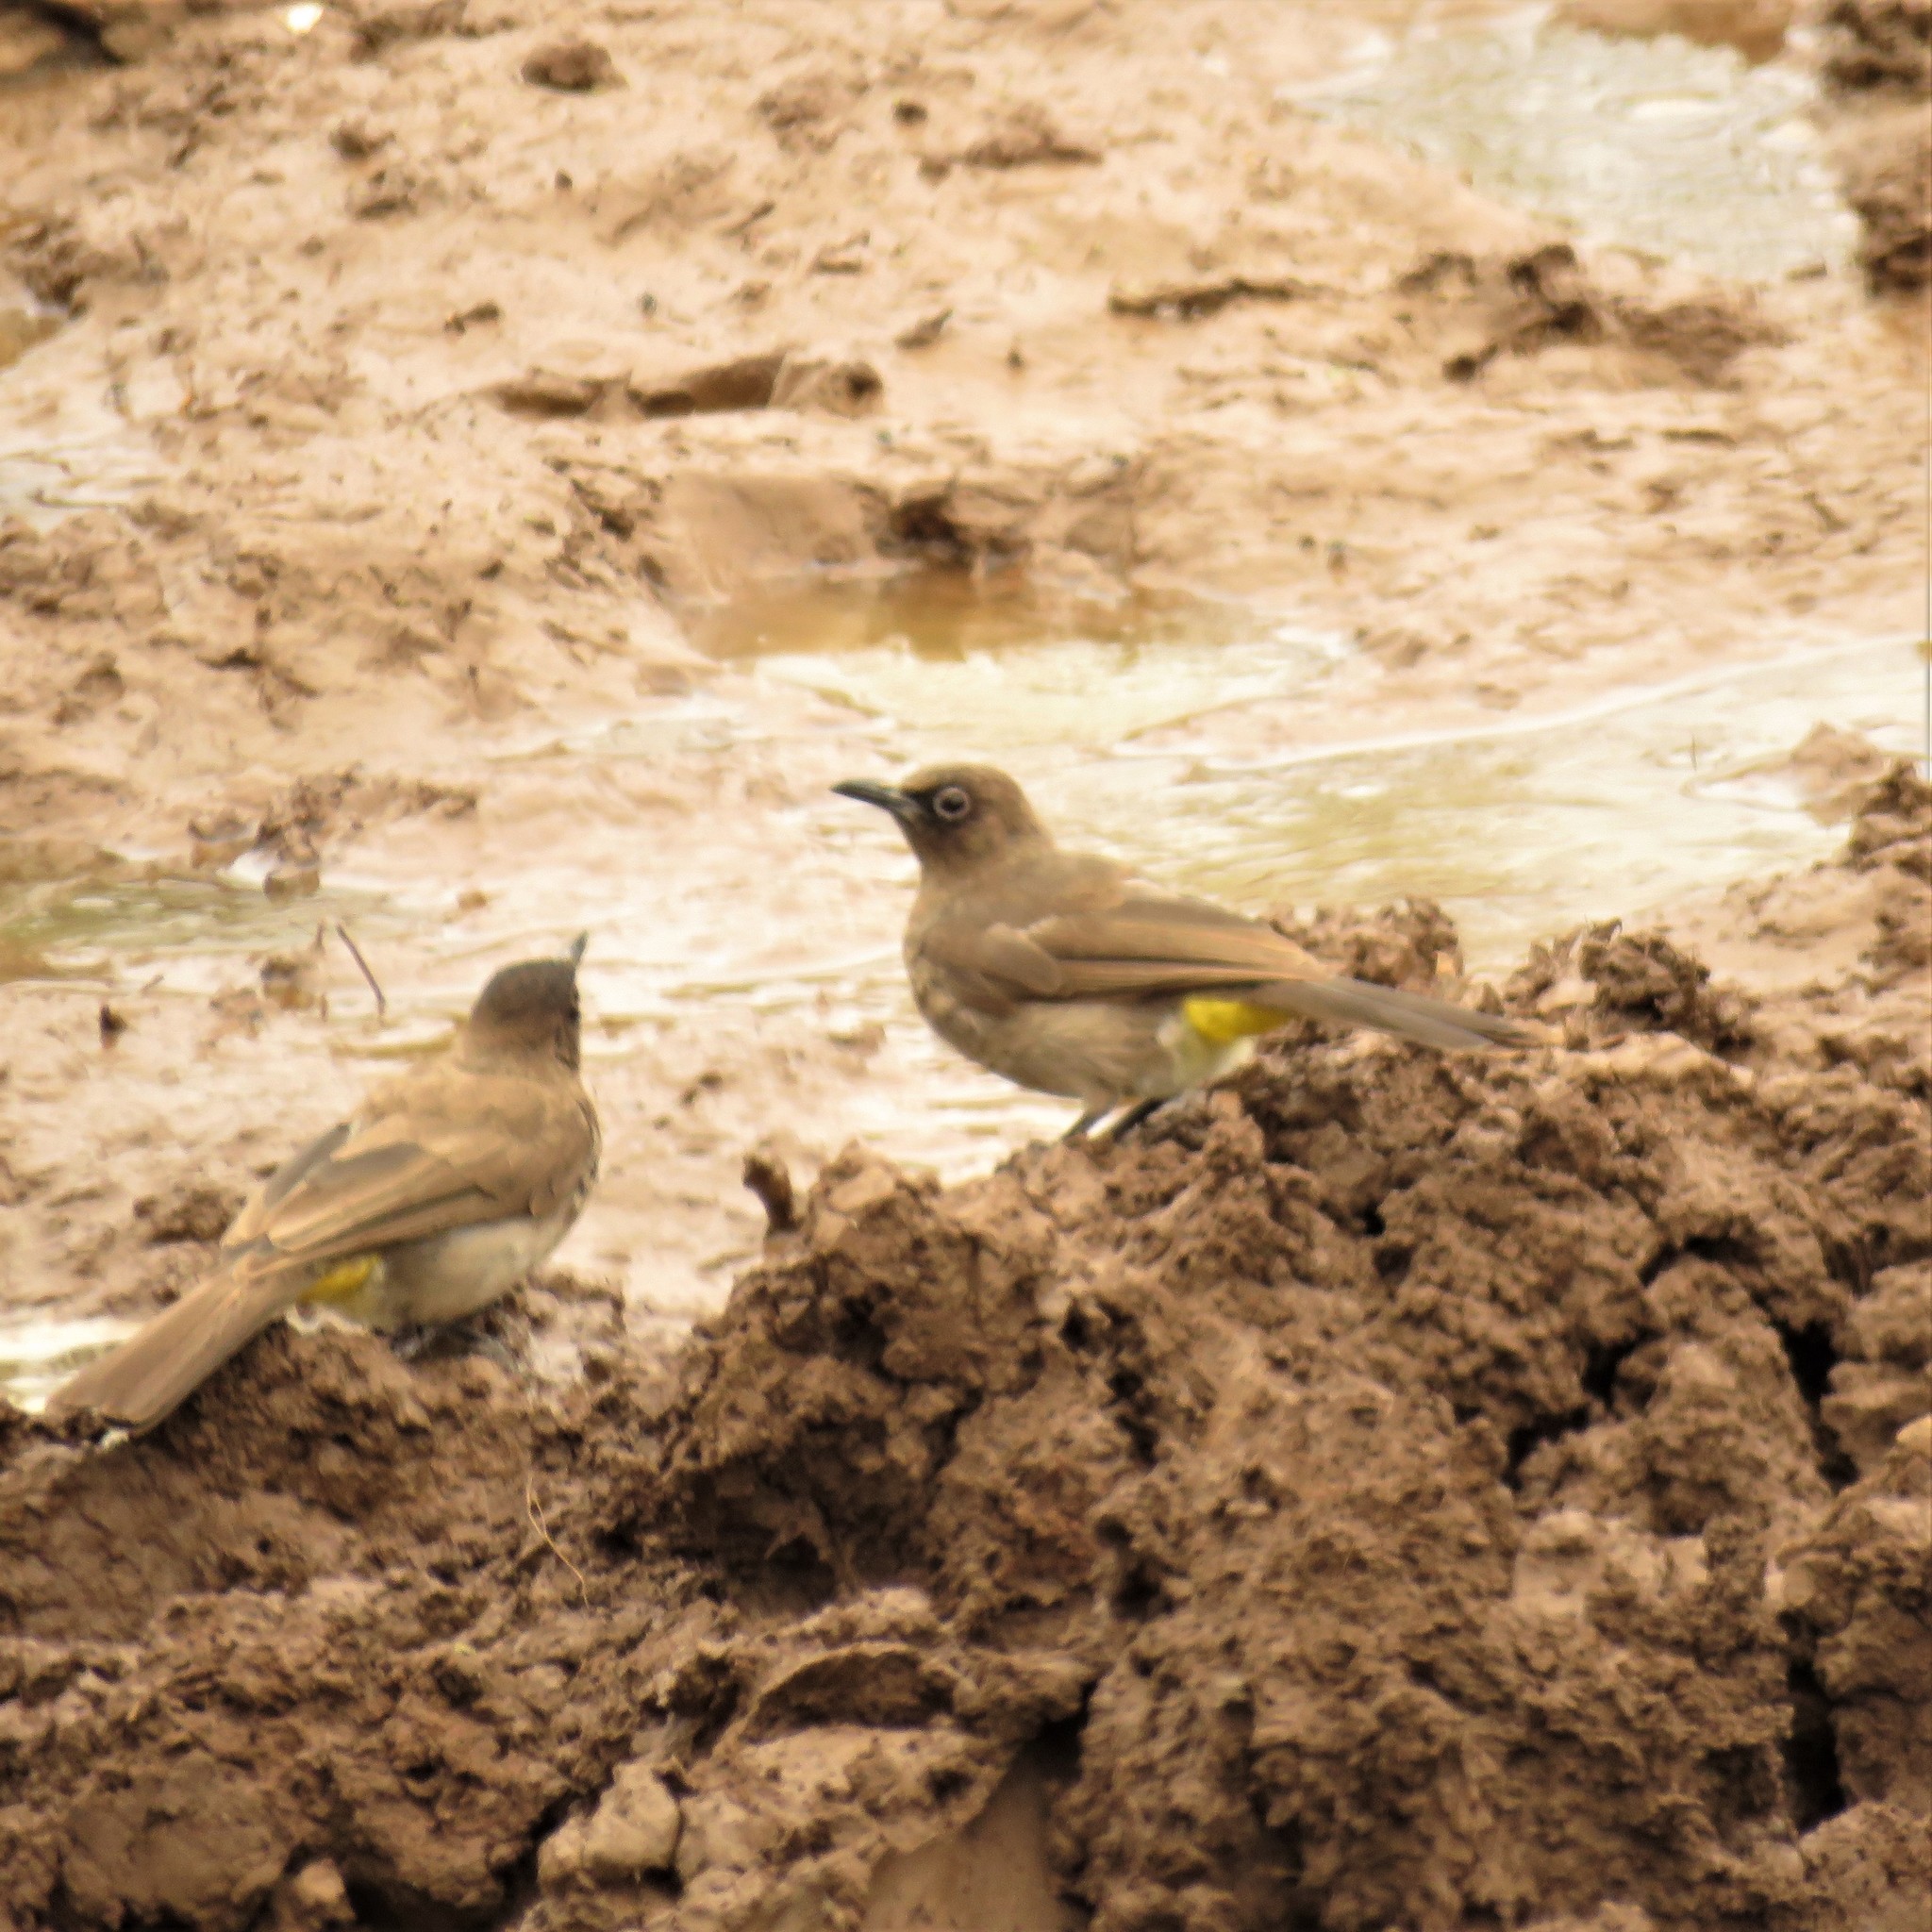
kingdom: Animalia
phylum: Chordata
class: Aves
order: Passeriformes
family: Pycnonotidae
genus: Pycnonotus
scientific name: Pycnonotus capensis
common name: Cape bulbul
